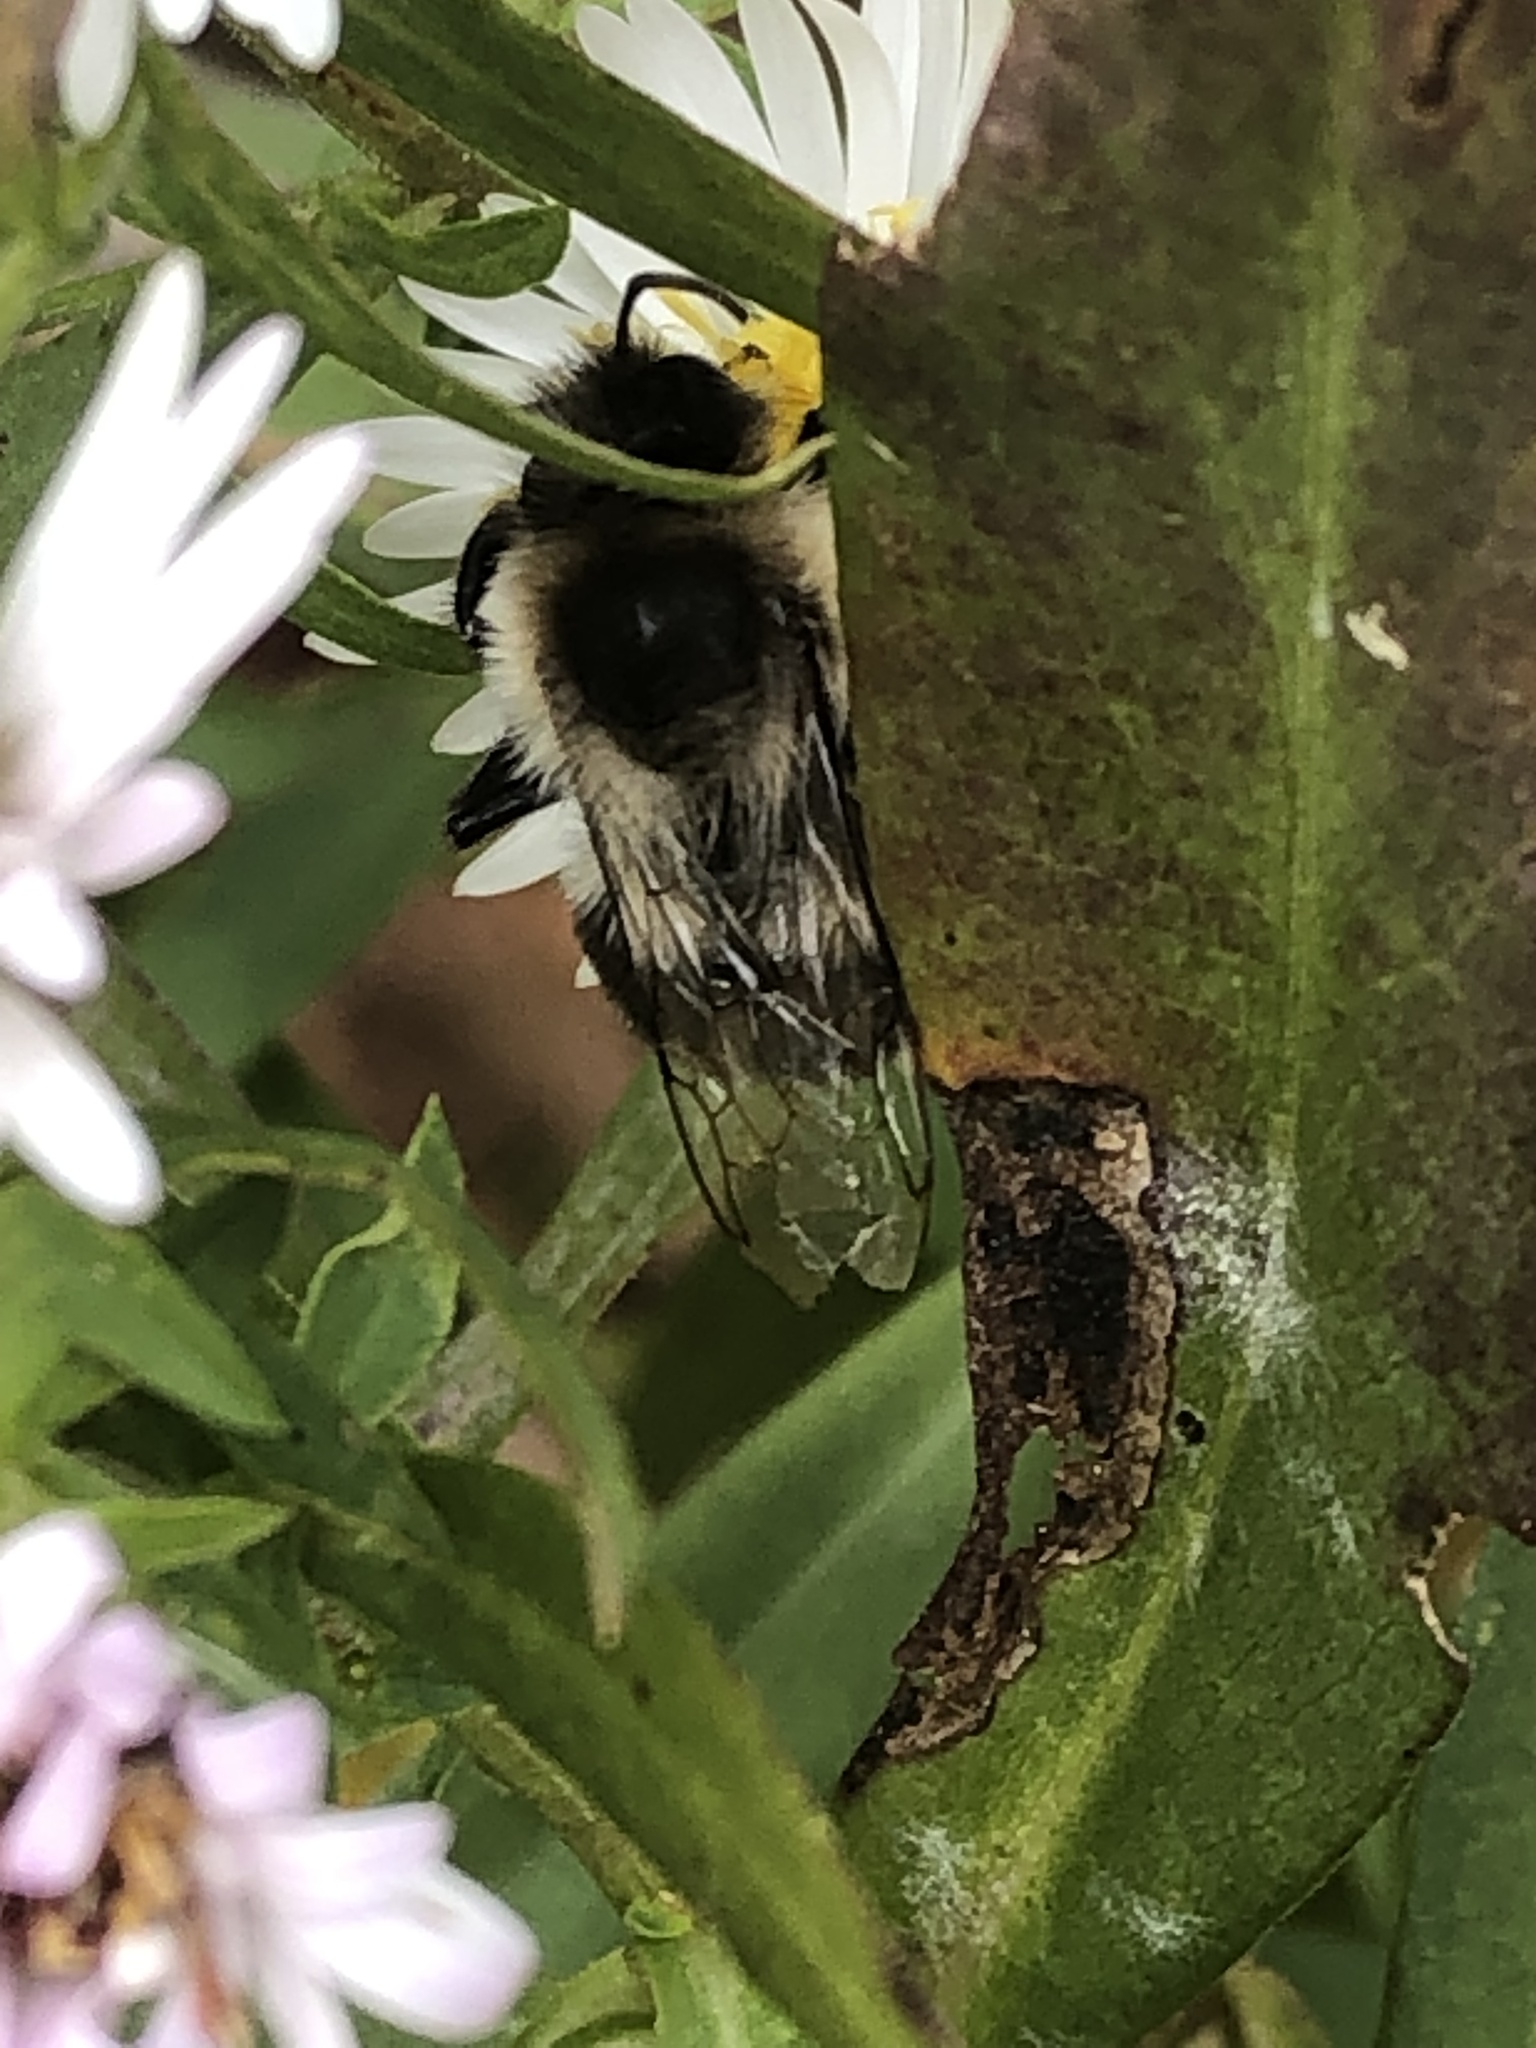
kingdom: Animalia
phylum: Arthropoda
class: Insecta
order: Hymenoptera
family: Apidae
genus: Bombus
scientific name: Bombus impatiens
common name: Common eastern bumble bee
